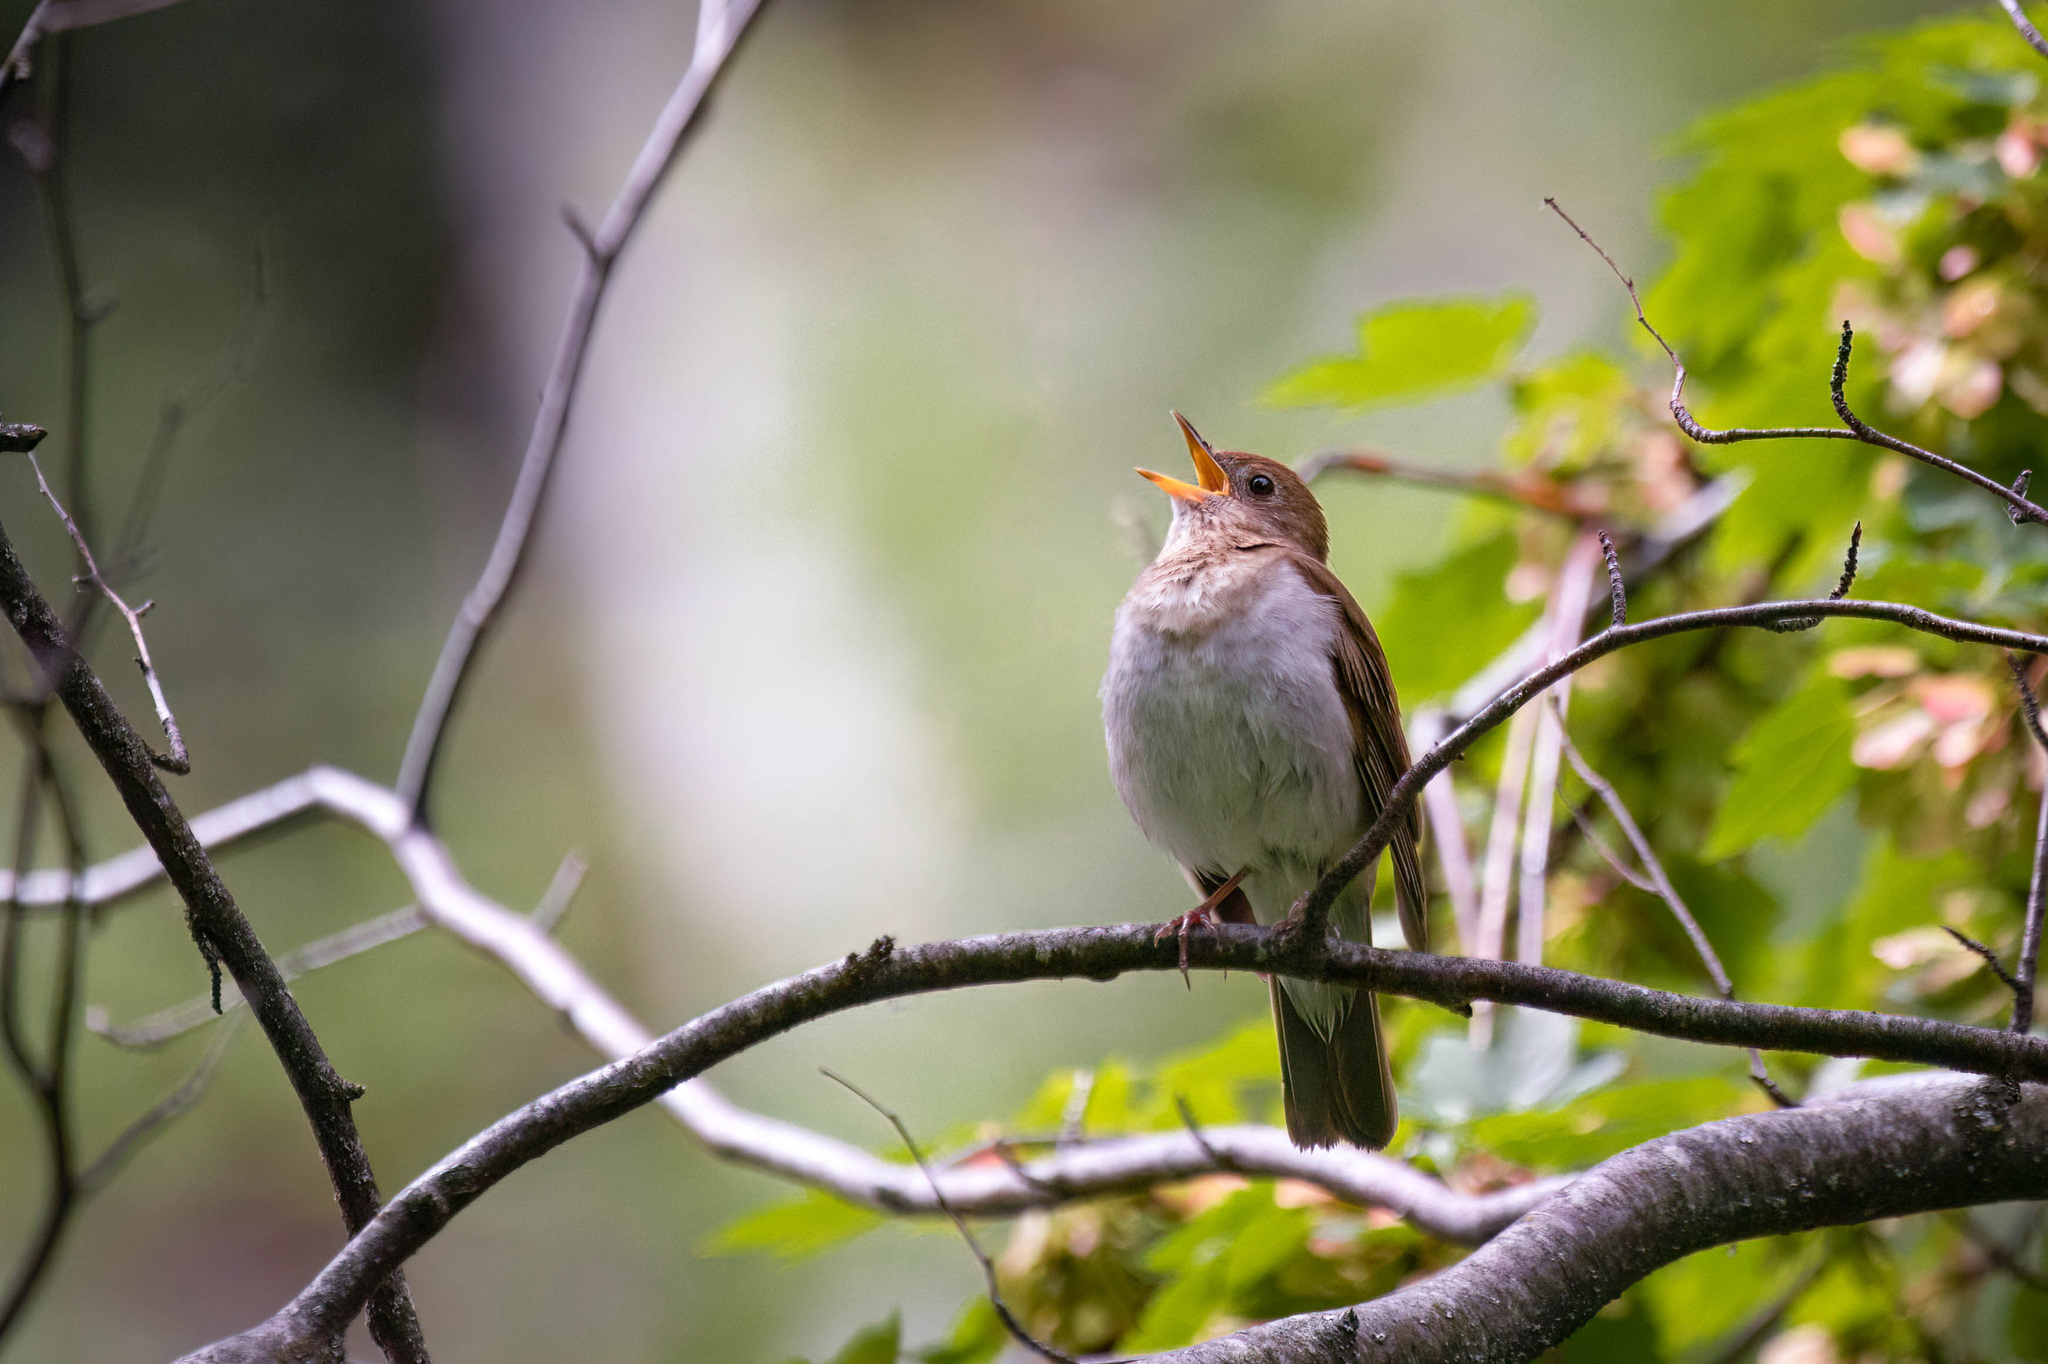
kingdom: Animalia
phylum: Chordata
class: Aves
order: Passeriformes
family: Turdidae
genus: Catharus
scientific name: Catharus fuscescens
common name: Veery
